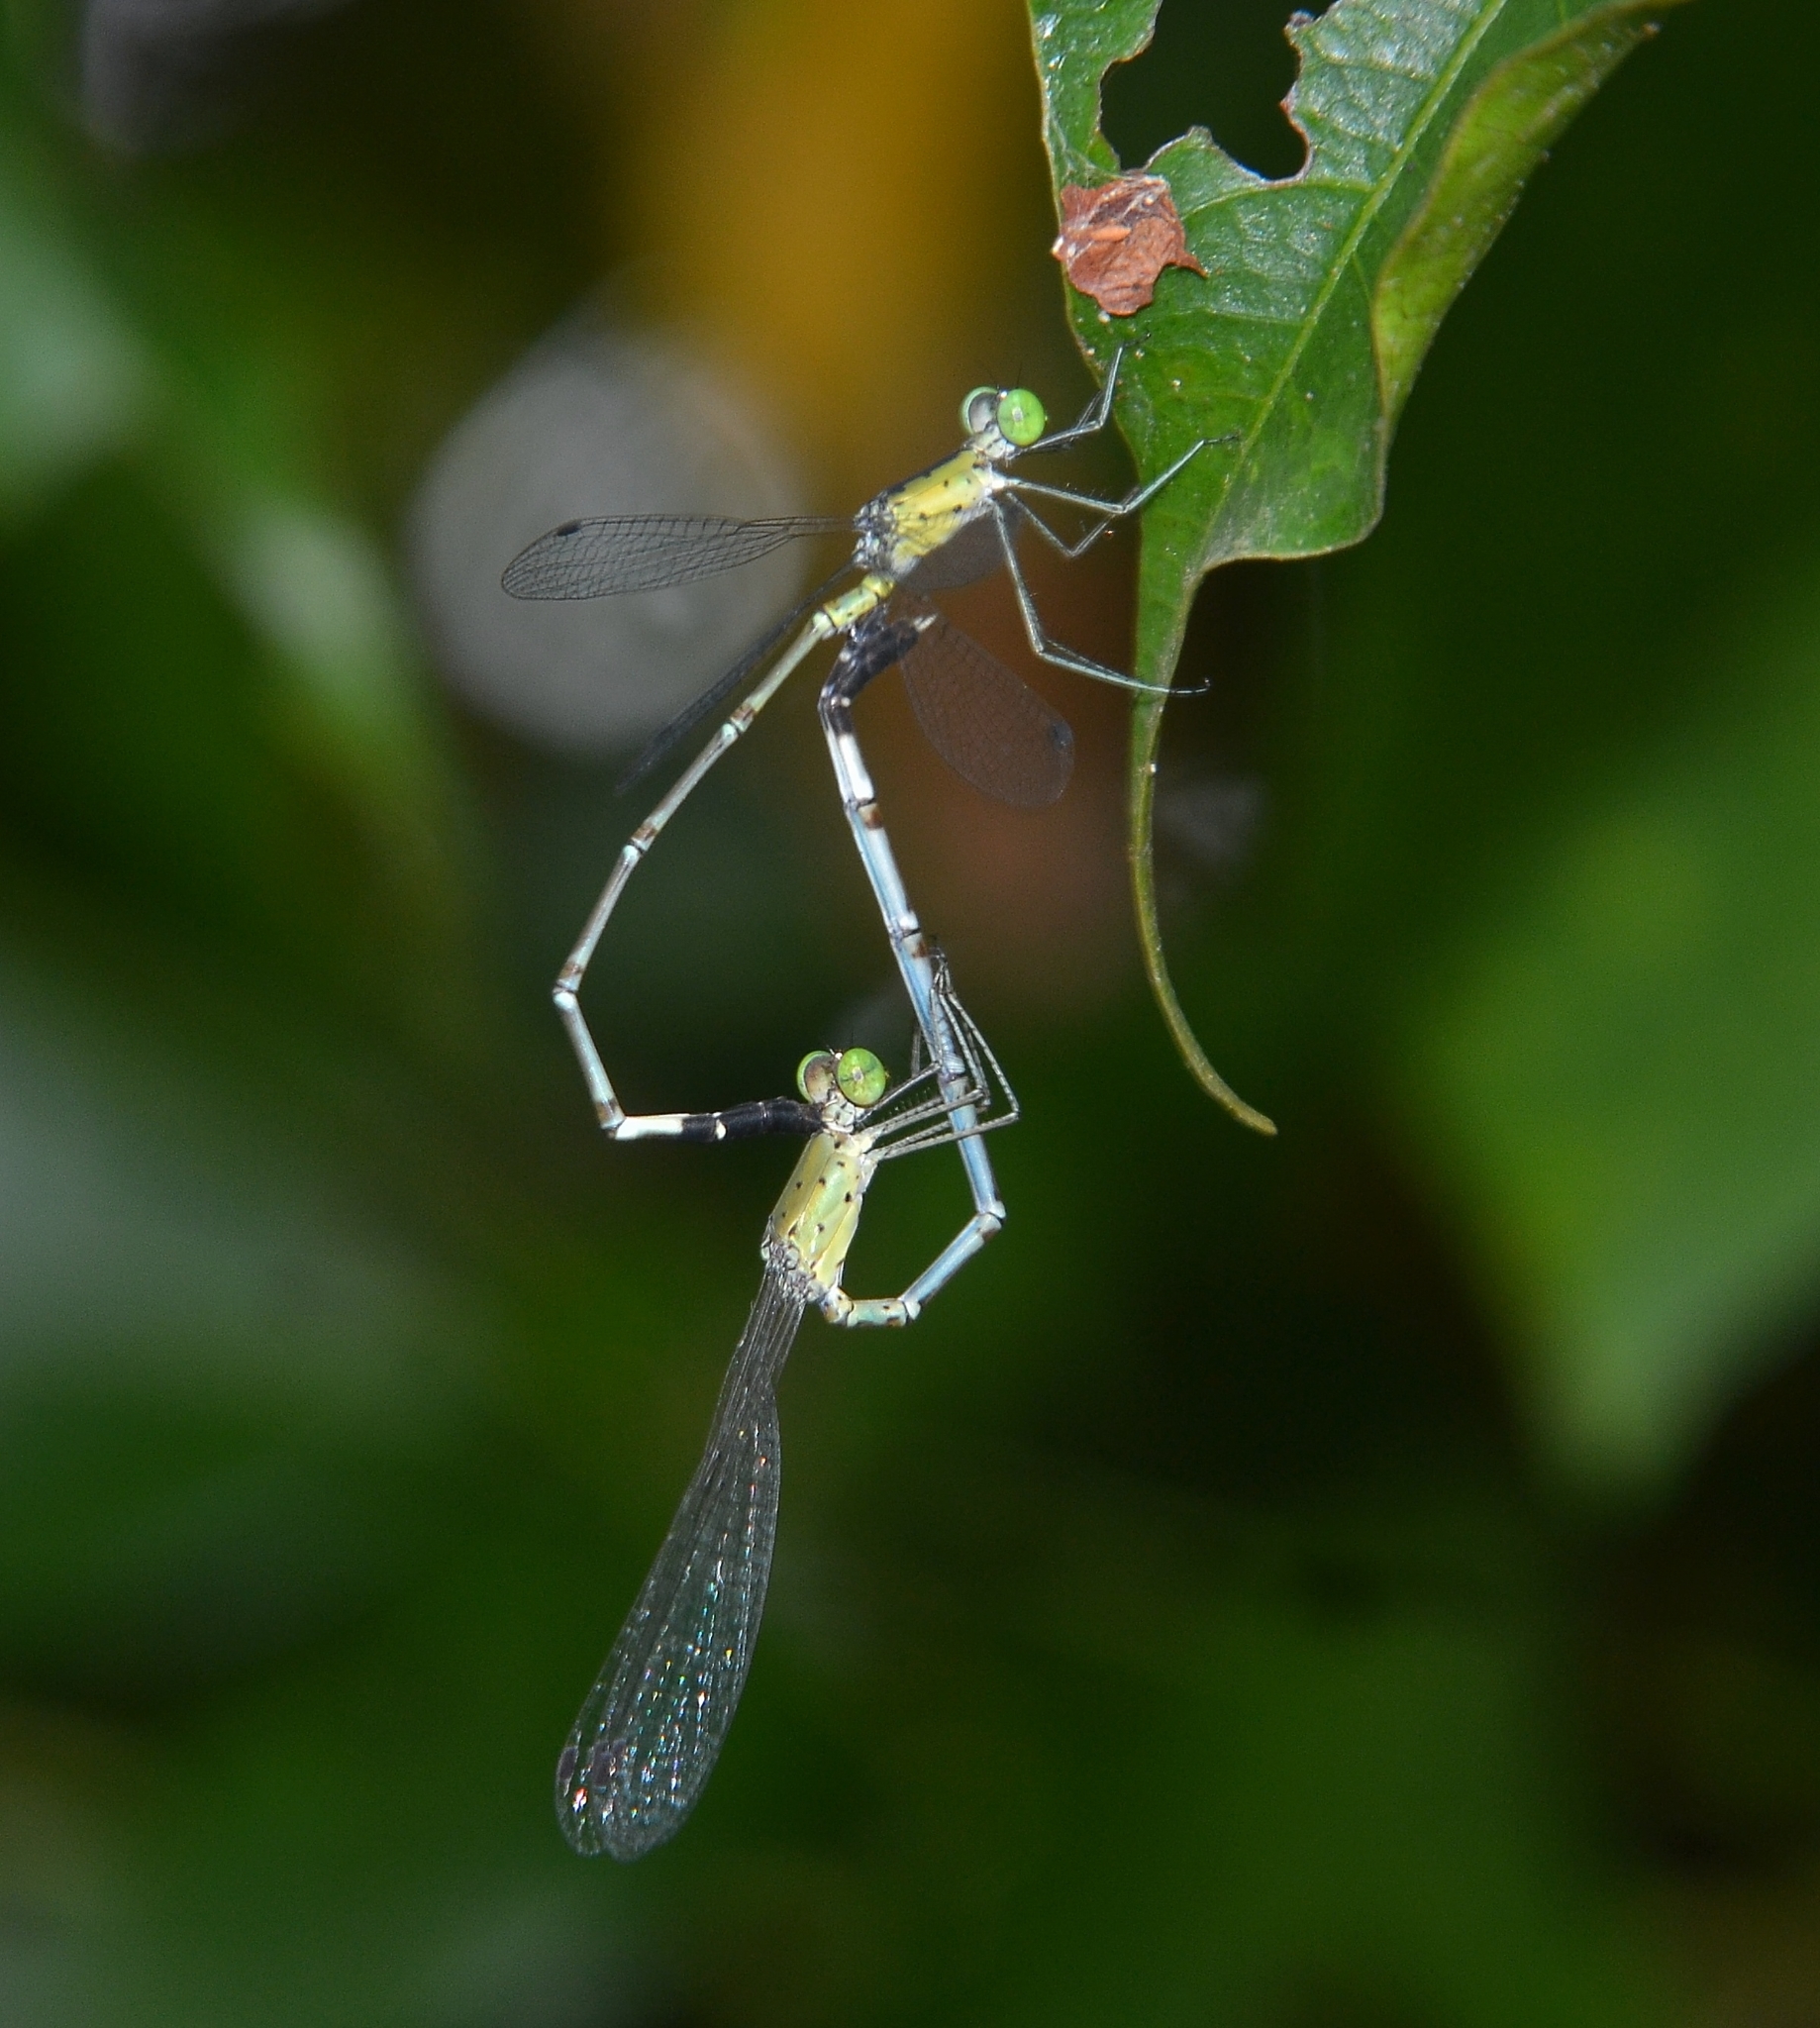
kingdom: Animalia
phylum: Arthropoda
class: Insecta
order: Odonata
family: Lestidae
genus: Platylestes
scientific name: Platylestes kirani
